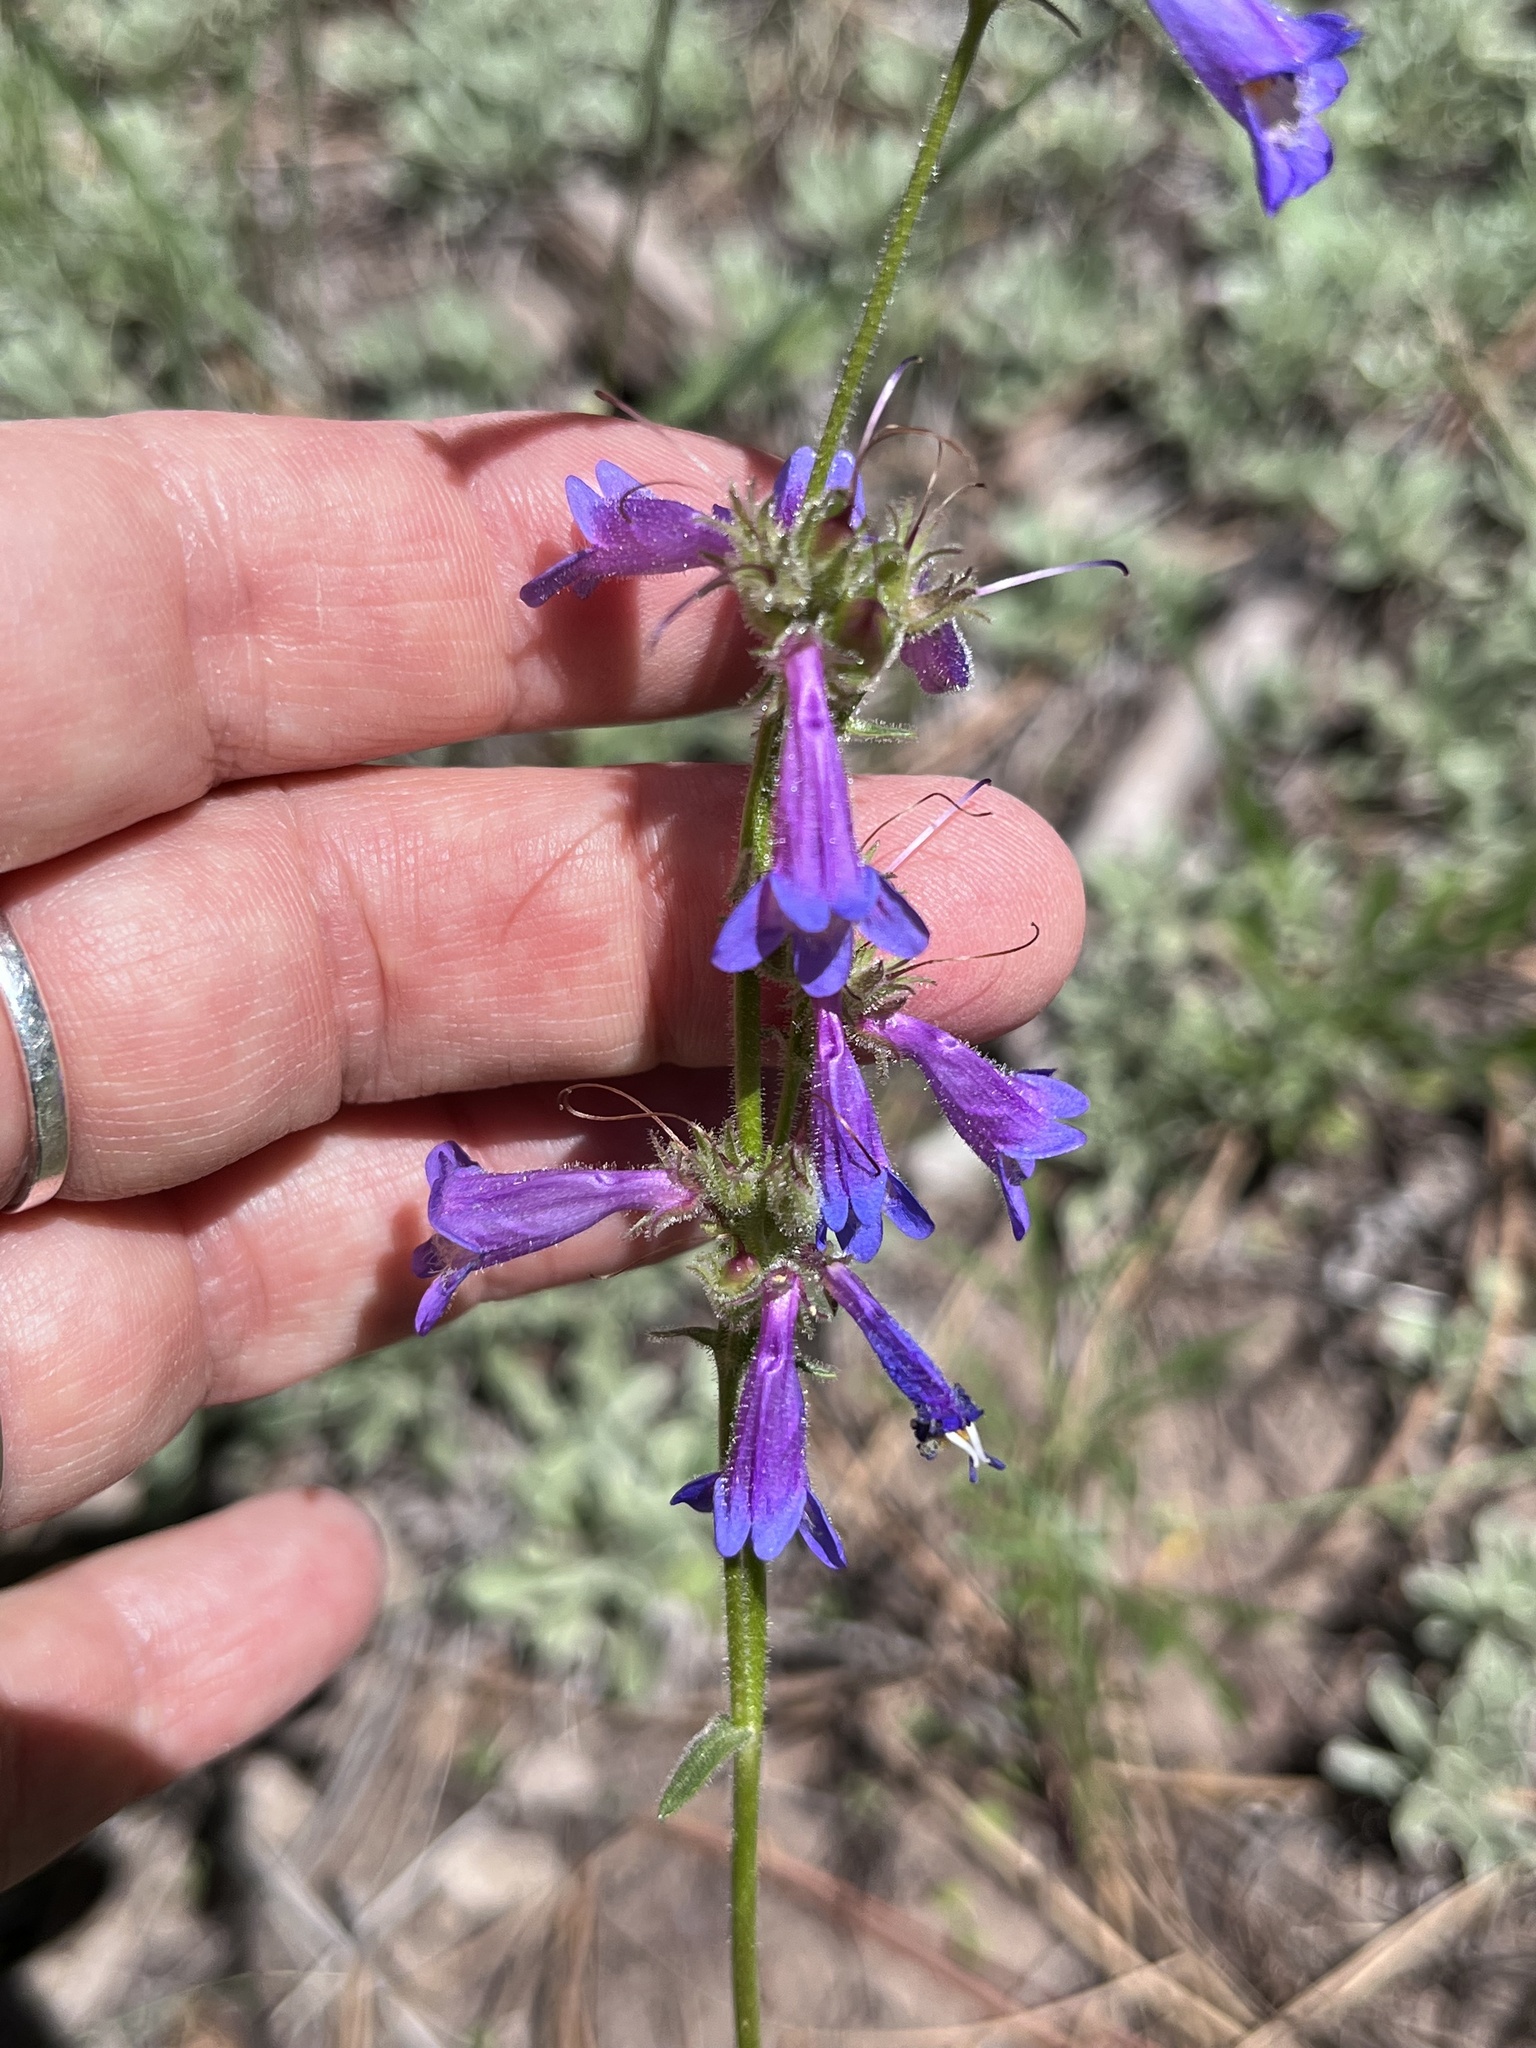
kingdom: Plantae
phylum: Tracheophyta
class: Magnoliopsida
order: Lamiales
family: Plantaginaceae
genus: Penstemon
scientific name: Penstemon oliganthus
